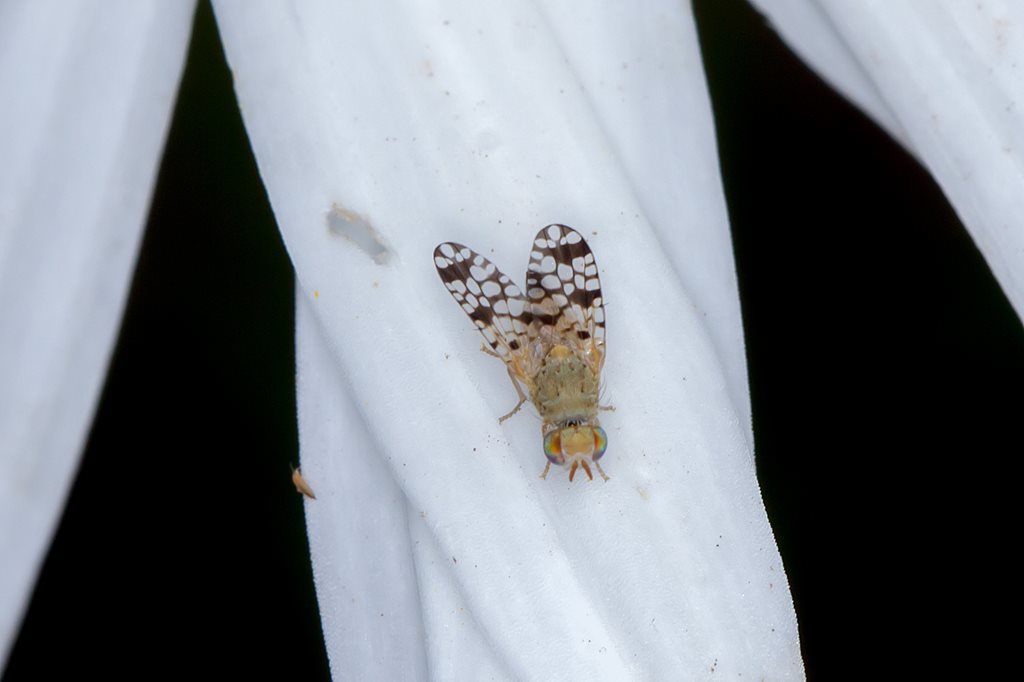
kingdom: Animalia
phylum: Arthropoda
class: Insecta
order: Diptera
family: Tephritidae
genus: Euaresta
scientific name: Euaresta bullans
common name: Fruitfly
